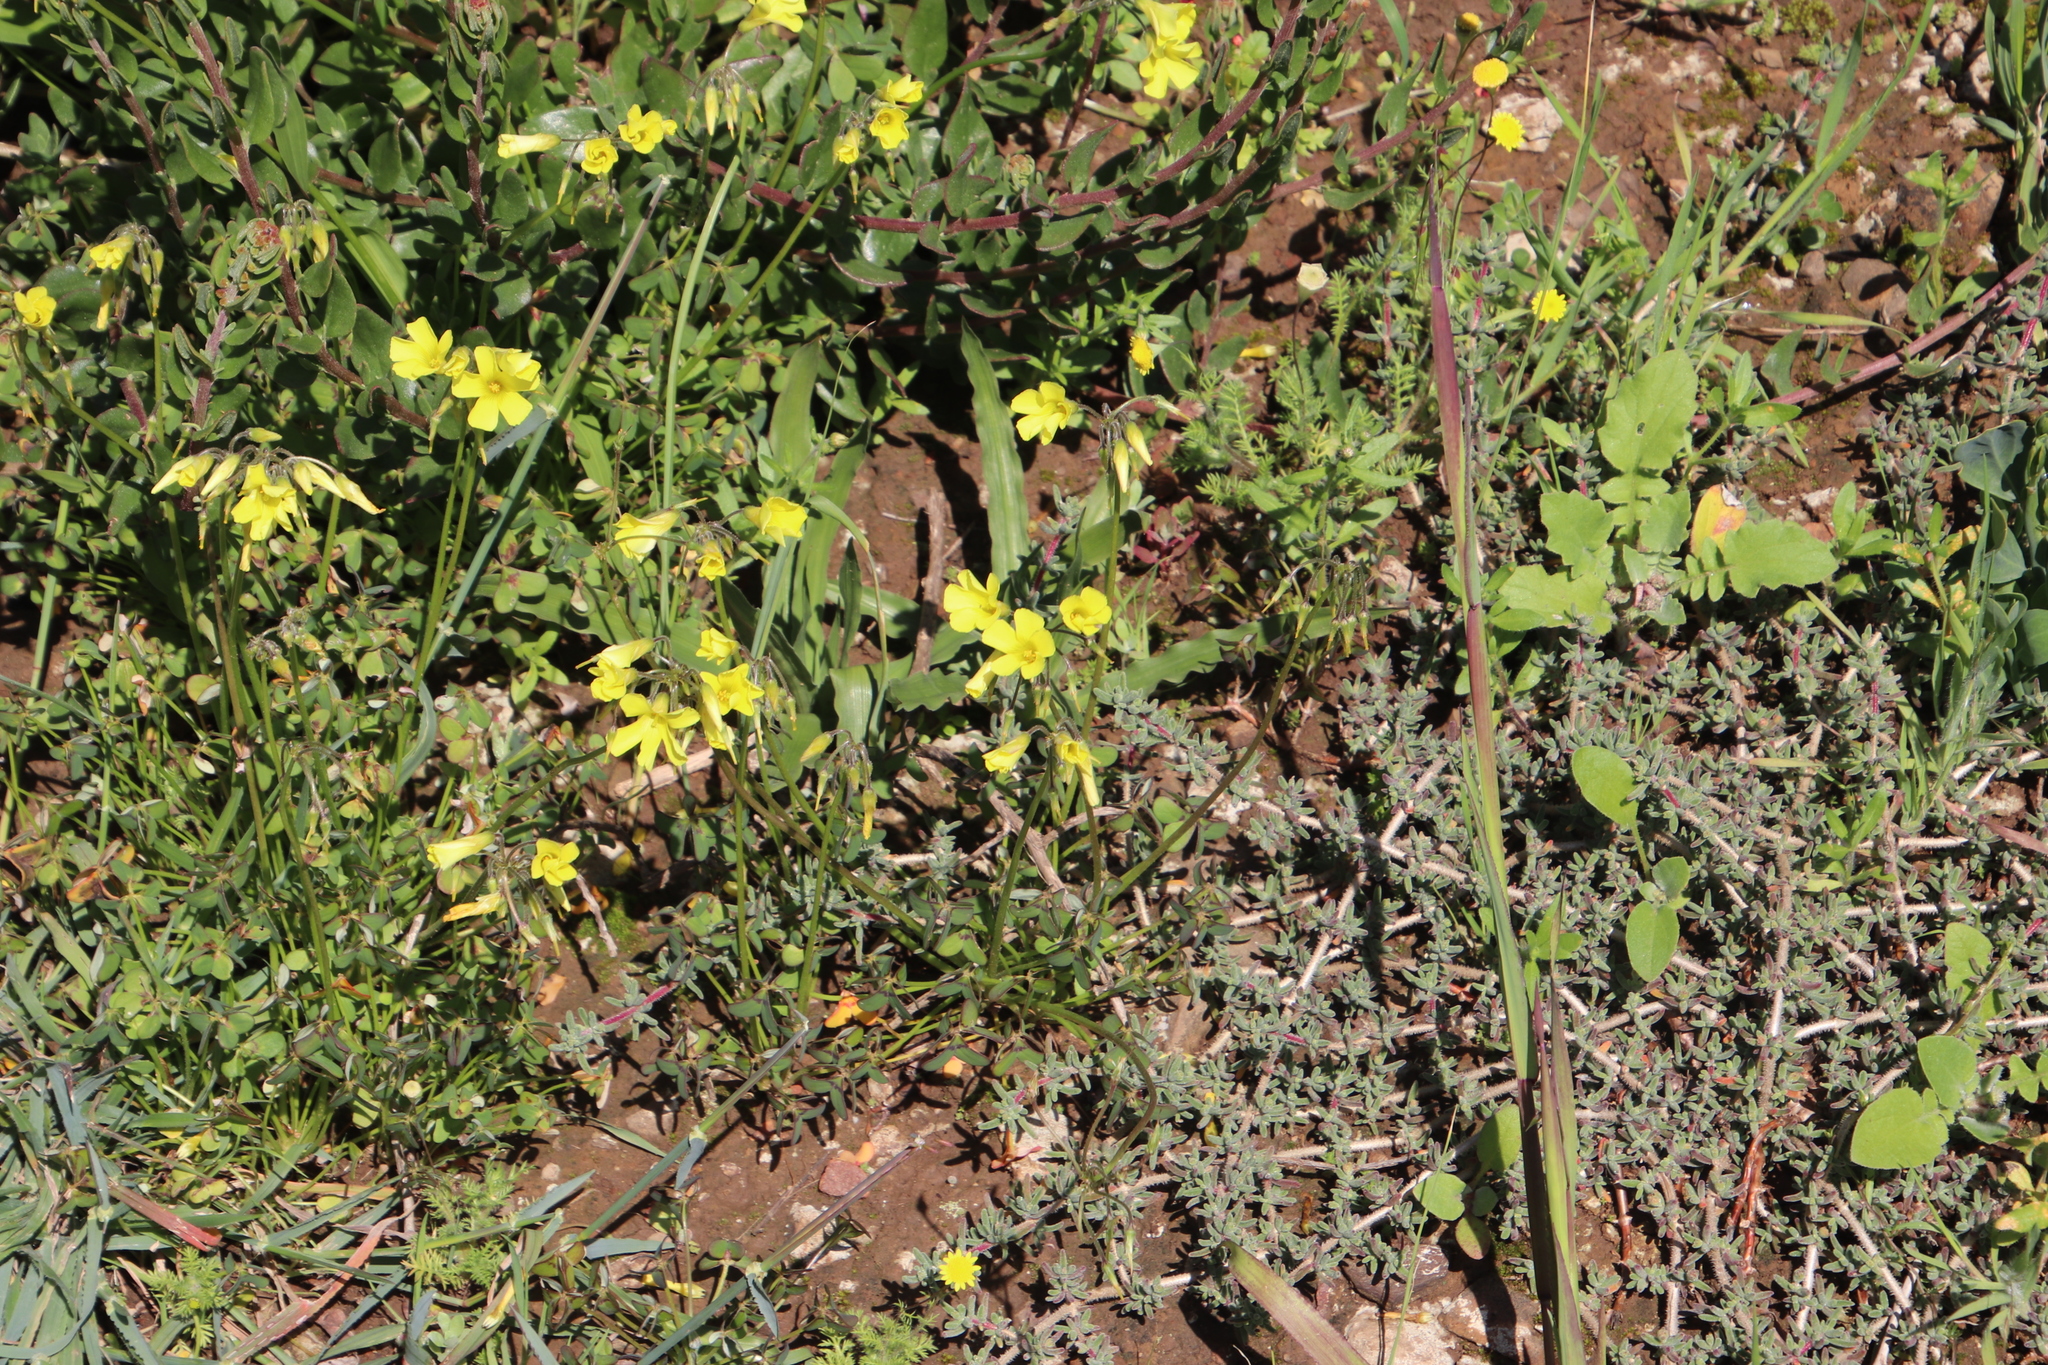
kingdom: Plantae
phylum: Tracheophyta
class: Magnoliopsida
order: Oxalidales
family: Oxalidaceae
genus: Oxalis
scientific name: Oxalis pes-caprae
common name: Bermuda-buttercup
